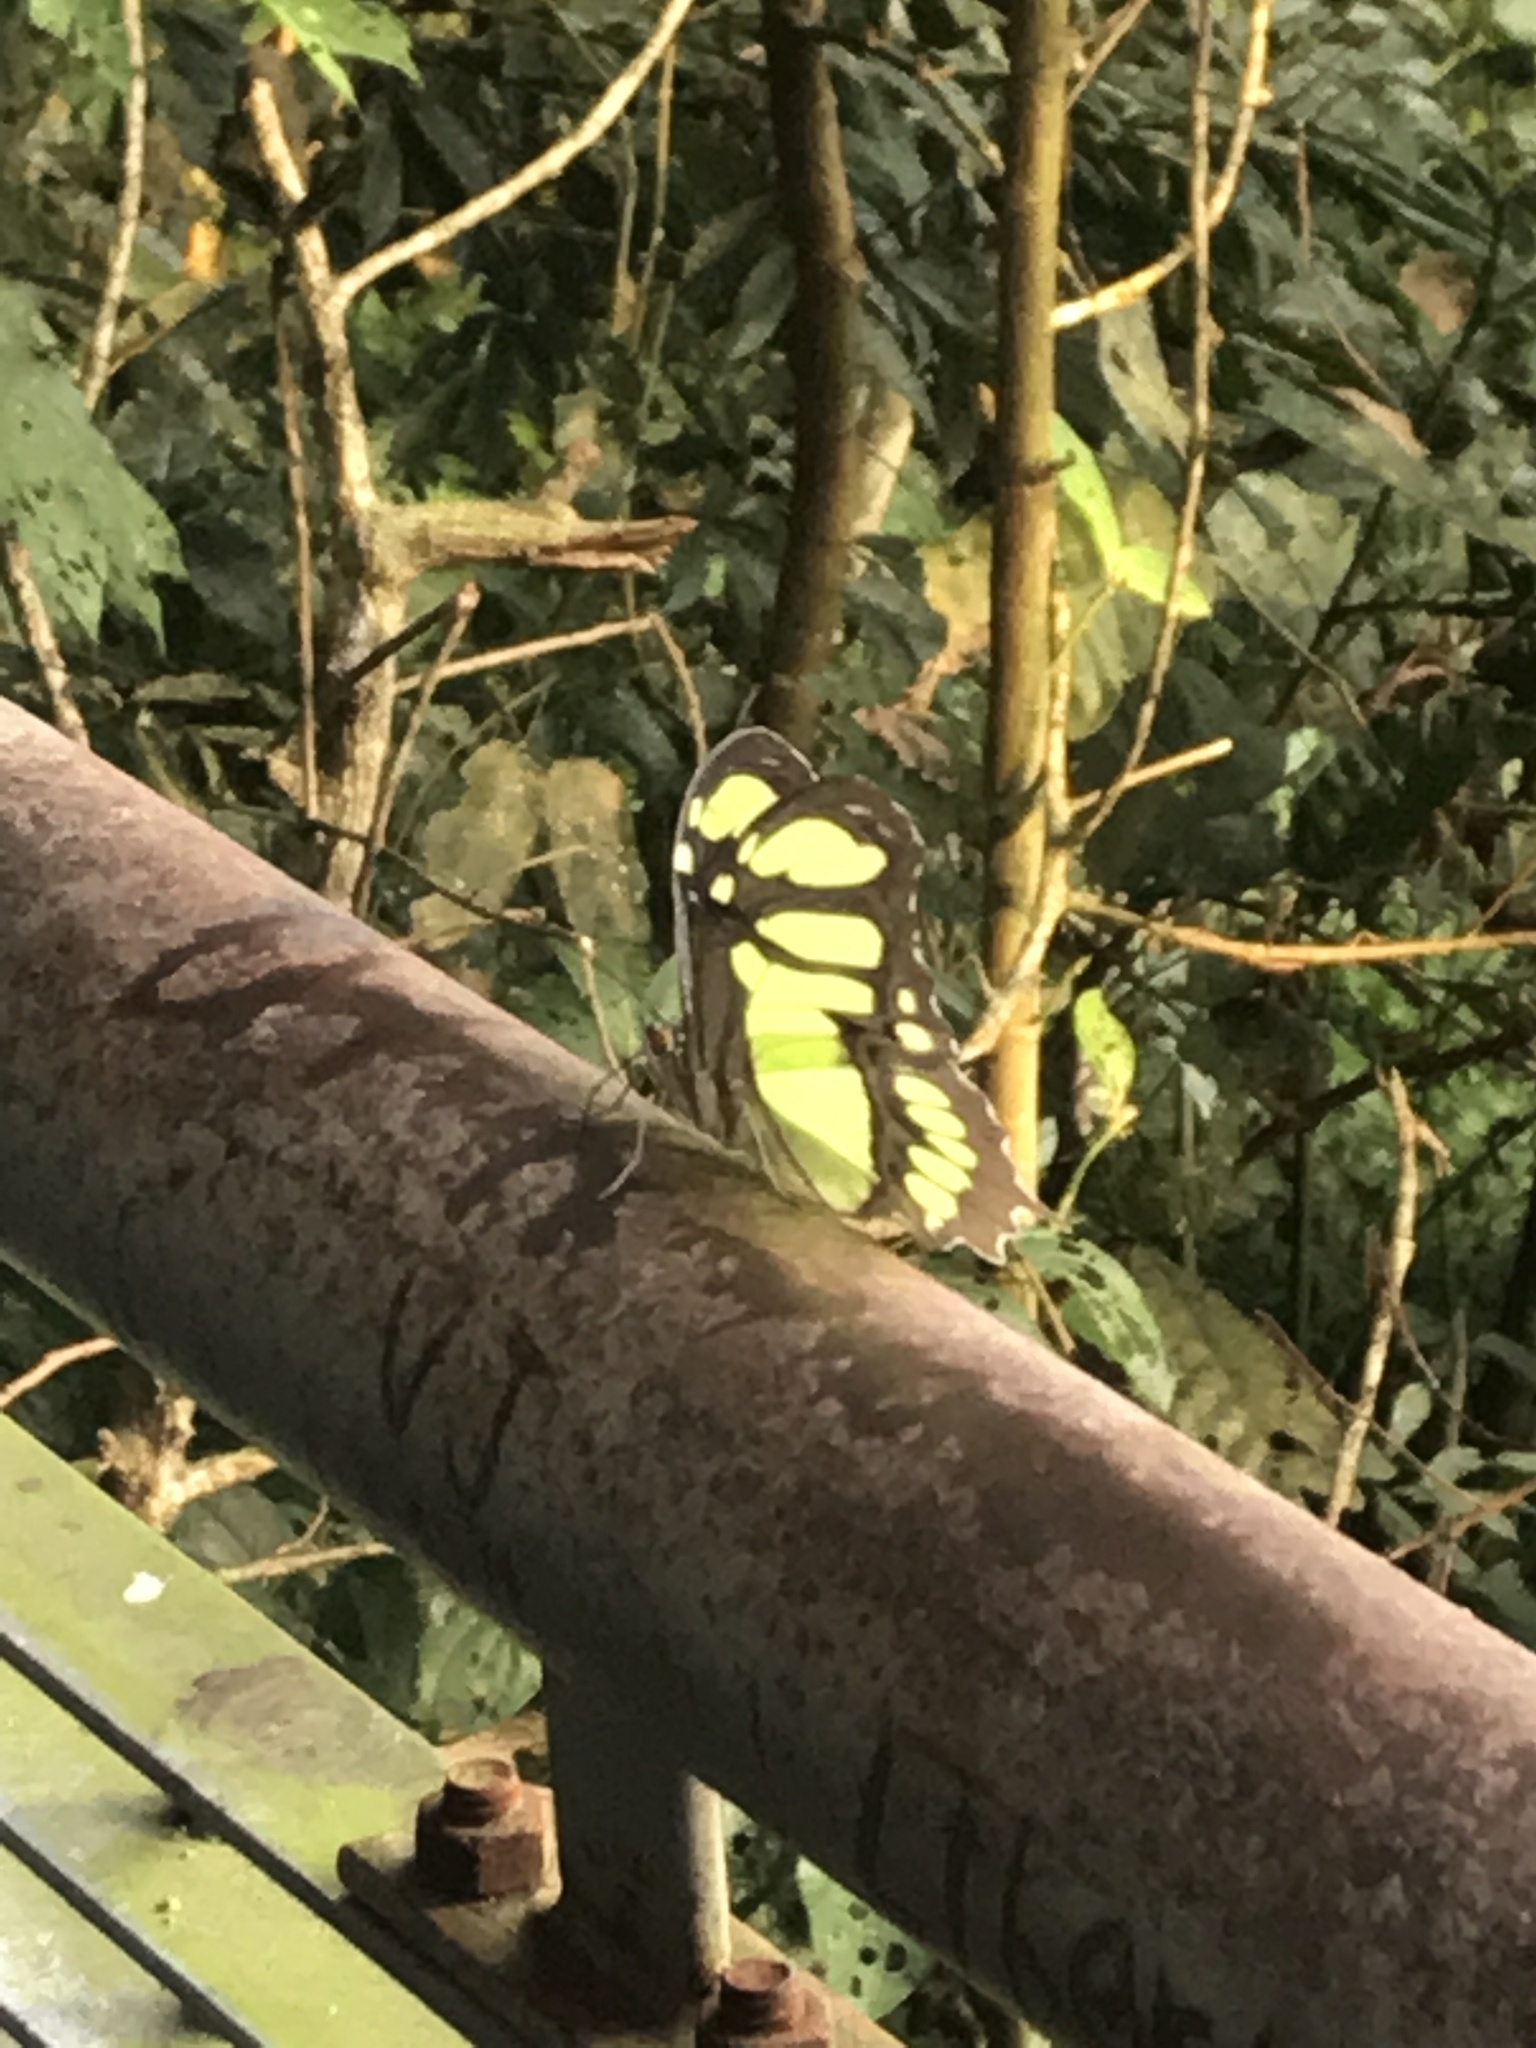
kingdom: Animalia
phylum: Arthropoda
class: Insecta
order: Lepidoptera
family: Nymphalidae
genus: Siproeta
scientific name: Siproeta stelenes
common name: Malachite
